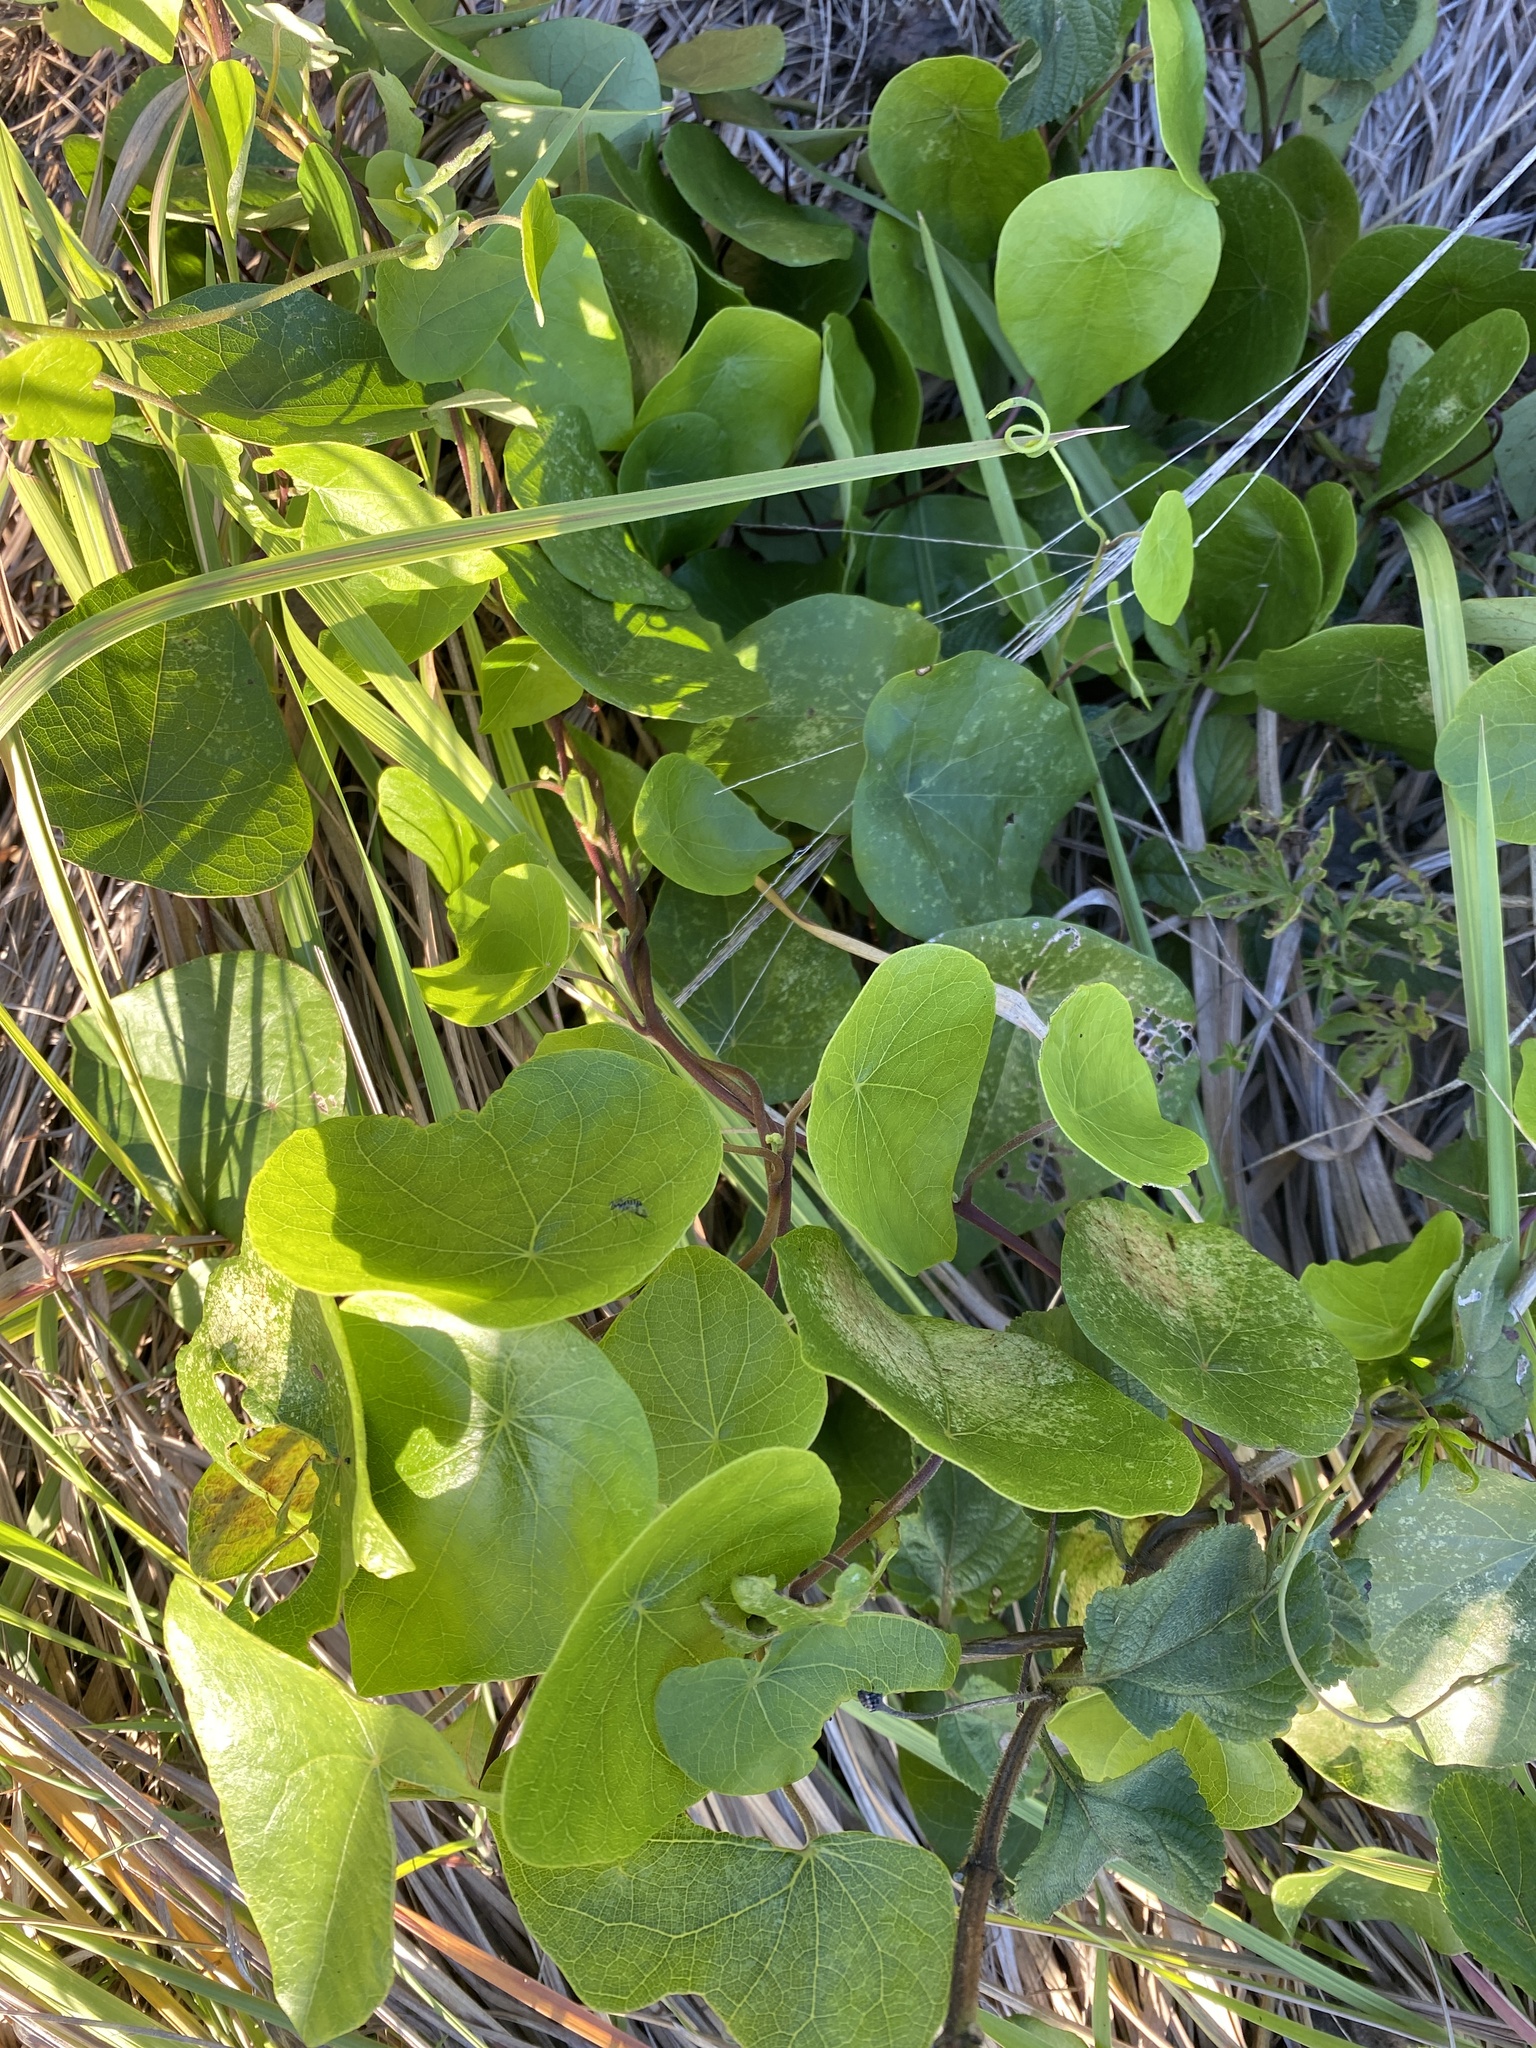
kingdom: Plantae
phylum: Tracheophyta
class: Magnoliopsida
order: Ranunculales
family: Menispermaceae
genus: Stephania
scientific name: Stephania japonica
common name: Snake vine
